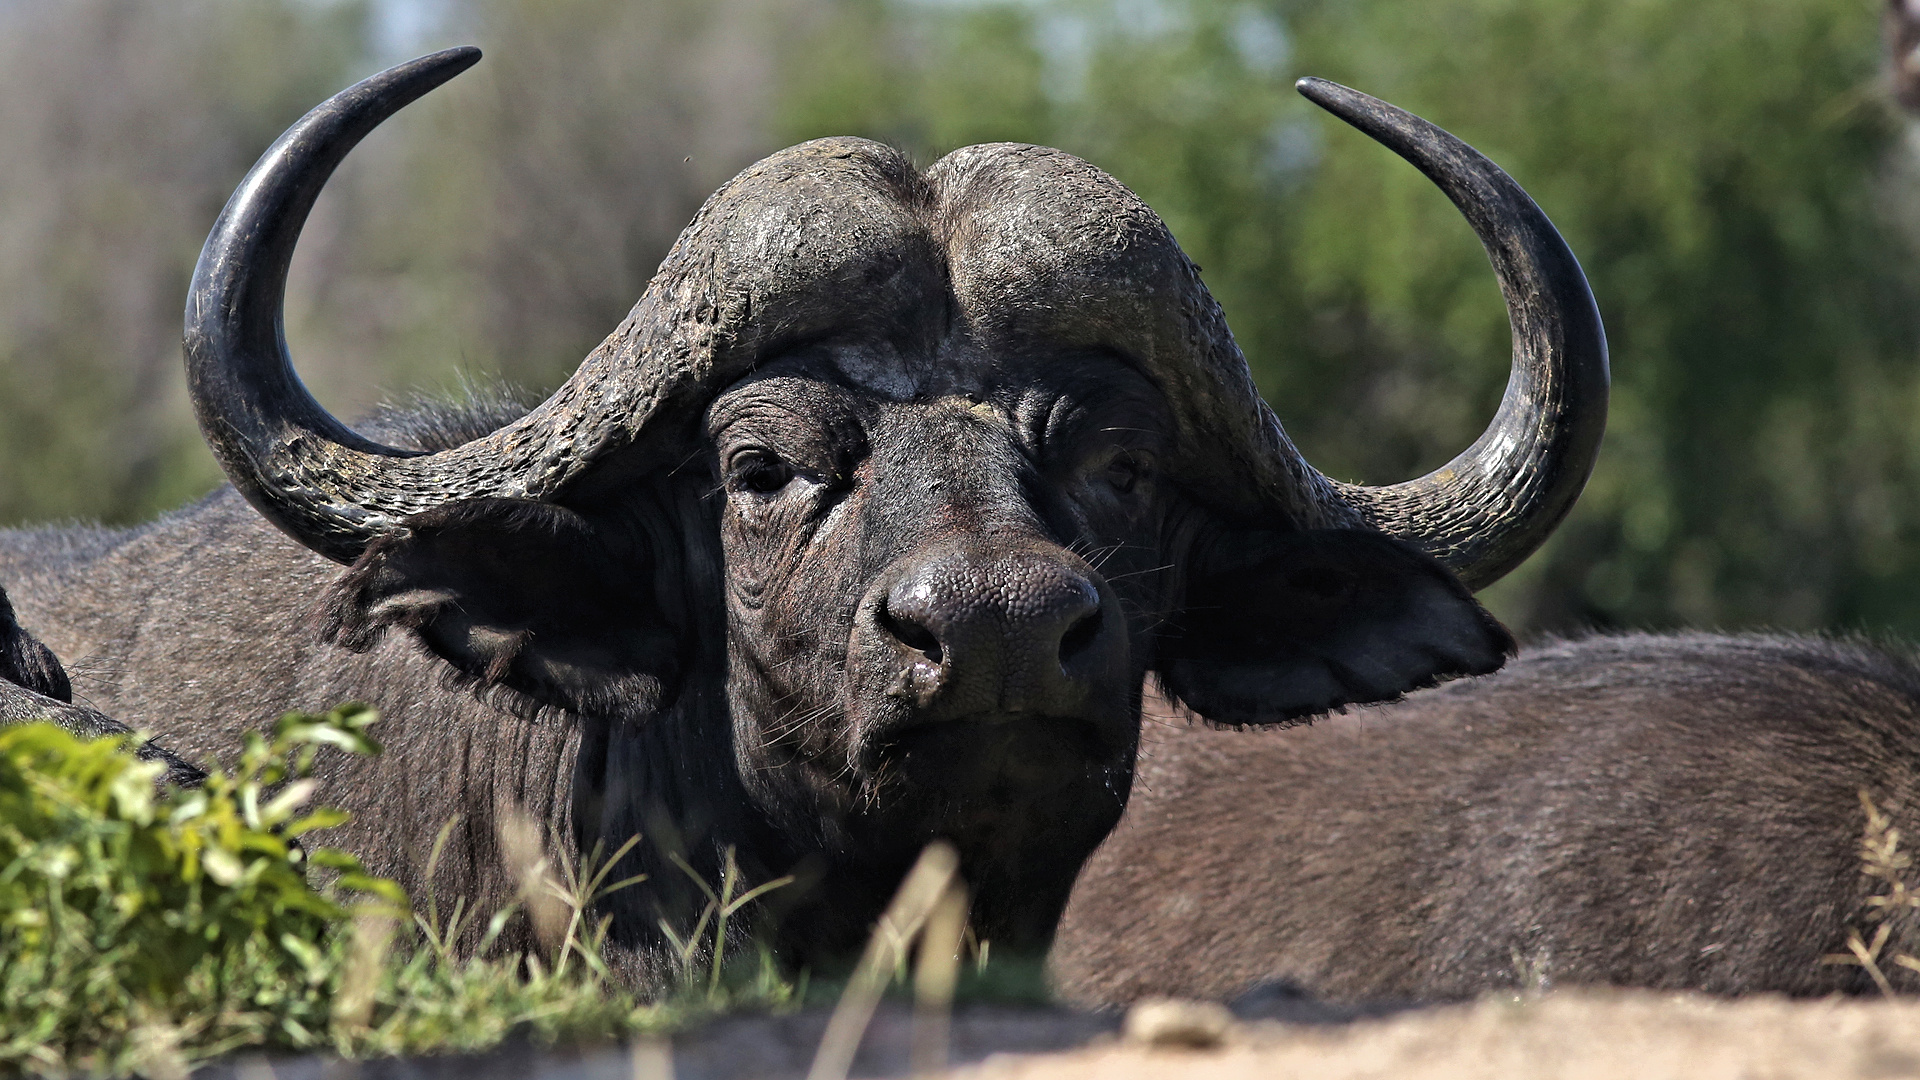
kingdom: Animalia
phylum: Chordata
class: Mammalia
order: Artiodactyla
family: Bovidae
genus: Syncerus
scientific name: Syncerus caffer
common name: African buffalo
